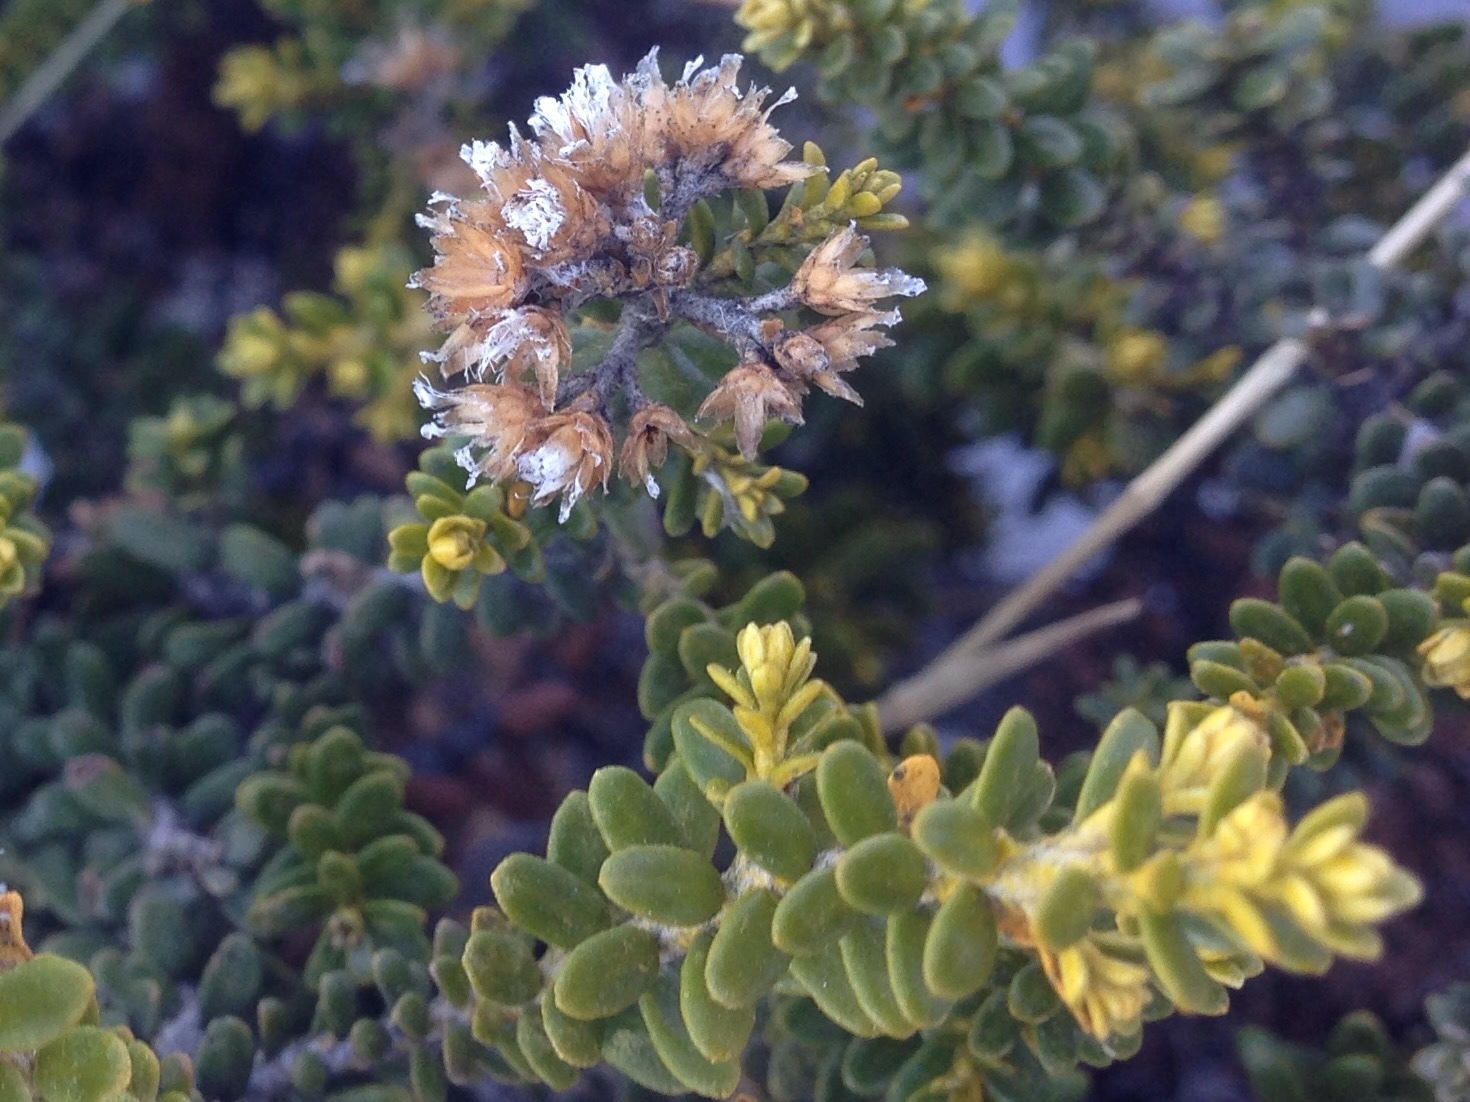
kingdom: Plantae
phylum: Tracheophyta
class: Magnoliopsida
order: Asterales
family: Asteraceae
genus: Ozothamnus
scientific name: Ozothamnus leptophyllus
